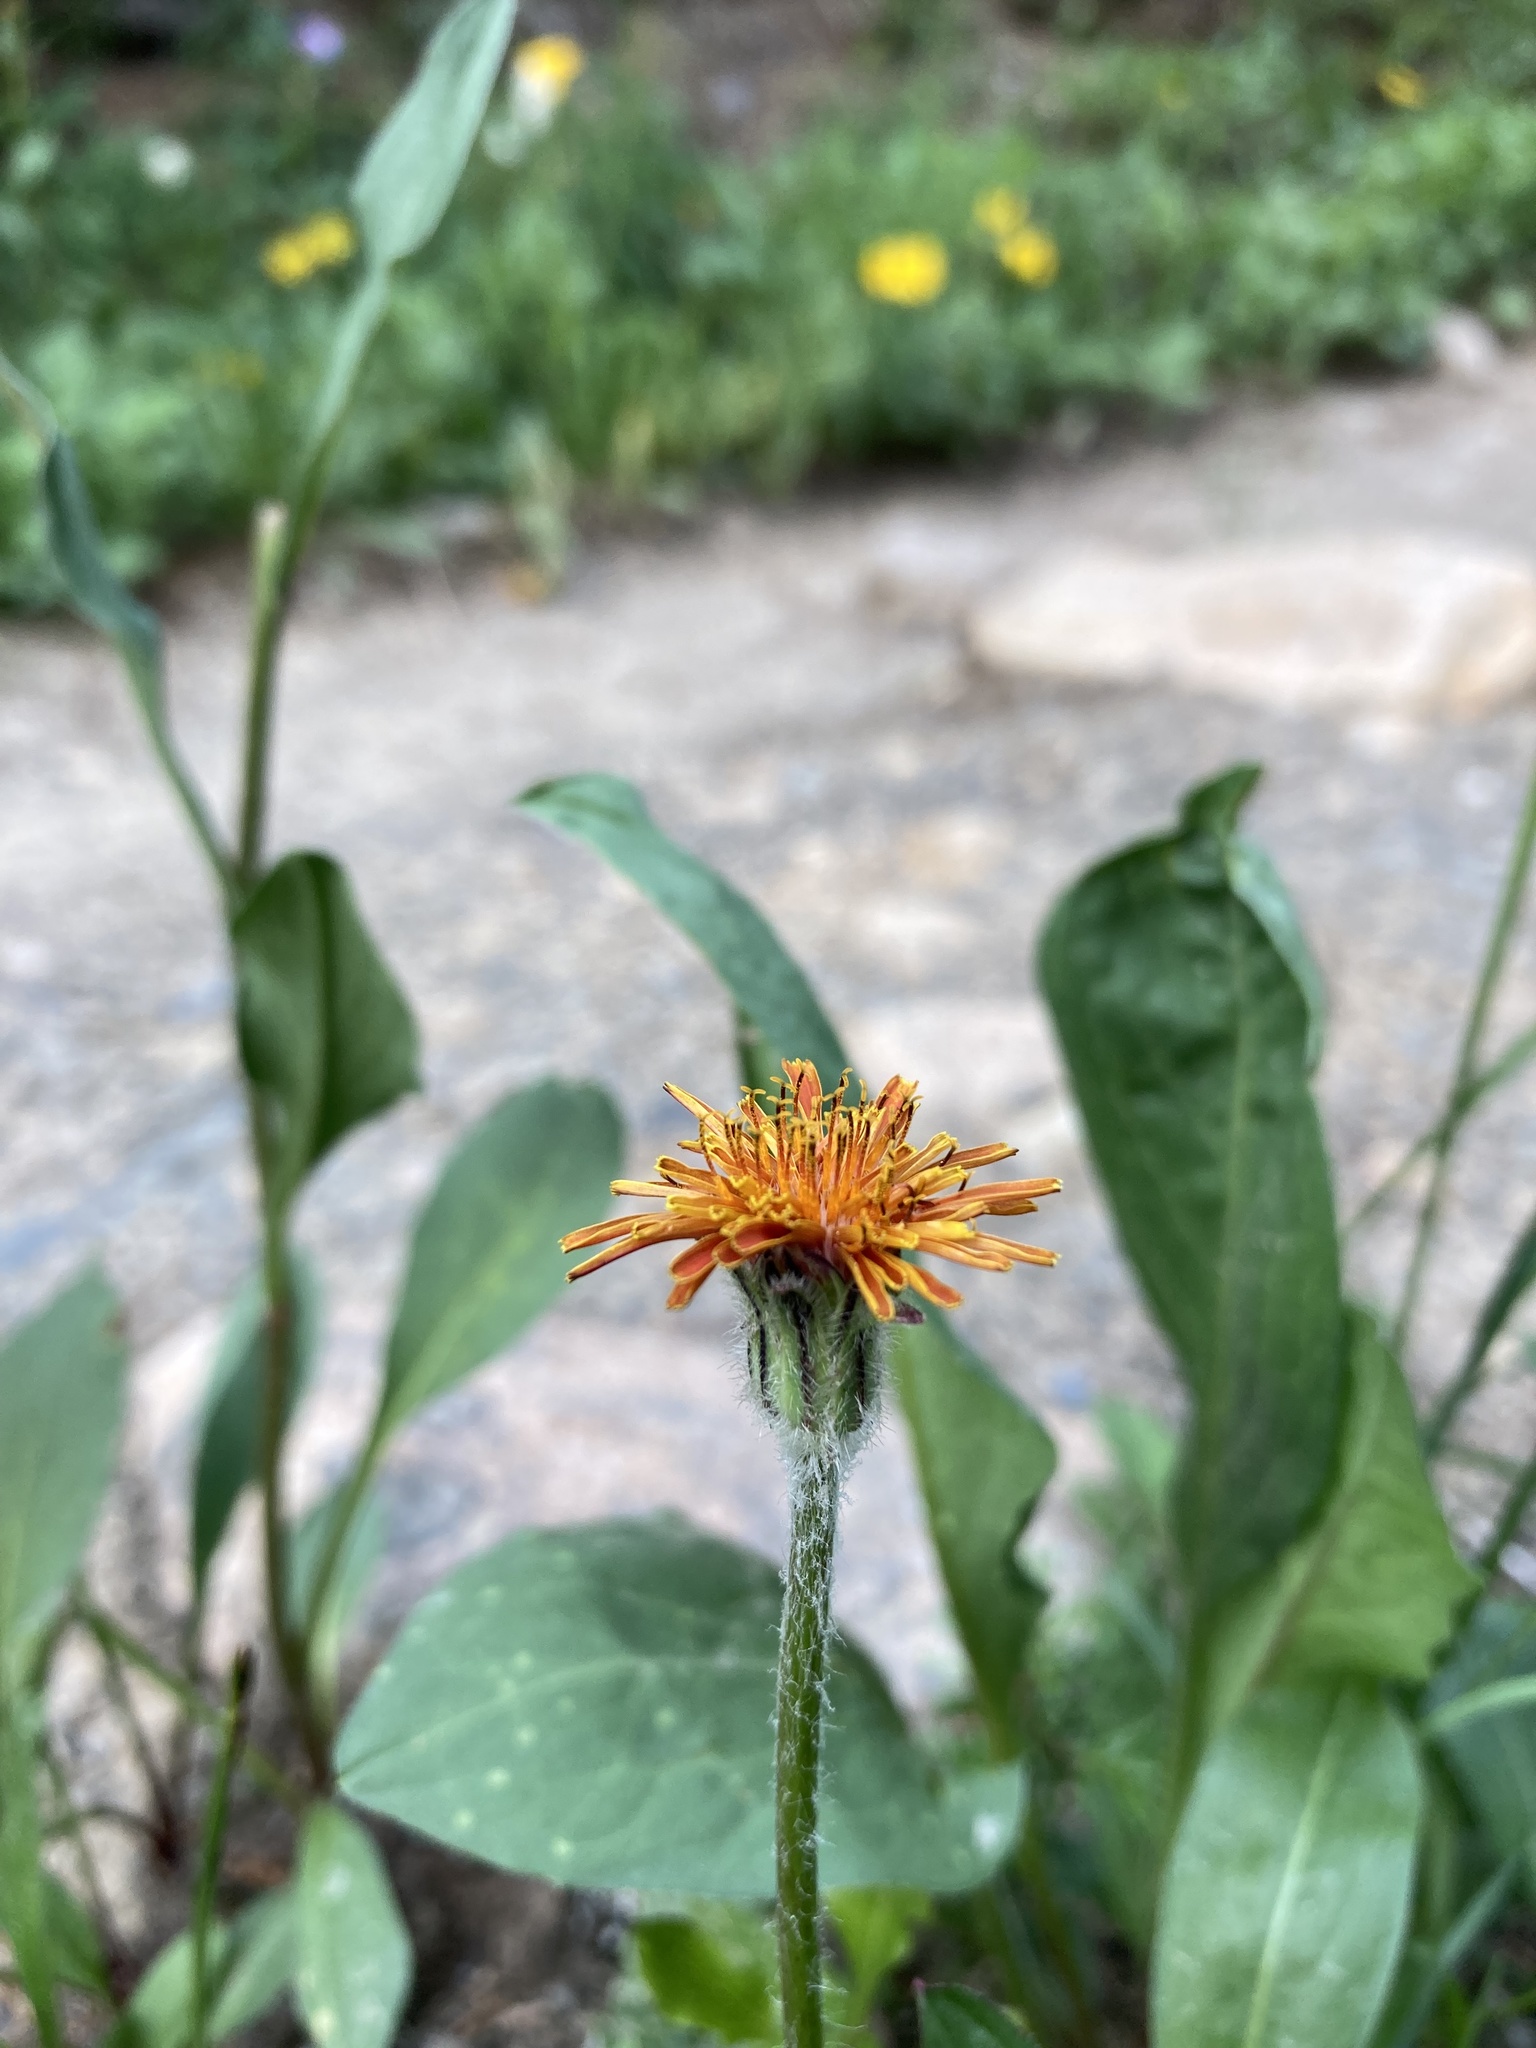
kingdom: Plantae
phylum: Tracheophyta
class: Magnoliopsida
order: Asterales
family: Asteraceae
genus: Agoseris
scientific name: Agoseris aurantiaca
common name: Mountain agoseris
